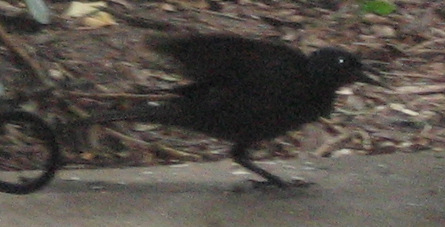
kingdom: Animalia
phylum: Chordata
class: Aves
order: Passeriformes
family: Icteridae
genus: Quiscalus
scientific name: Quiscalus quiscula
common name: Common grackle
